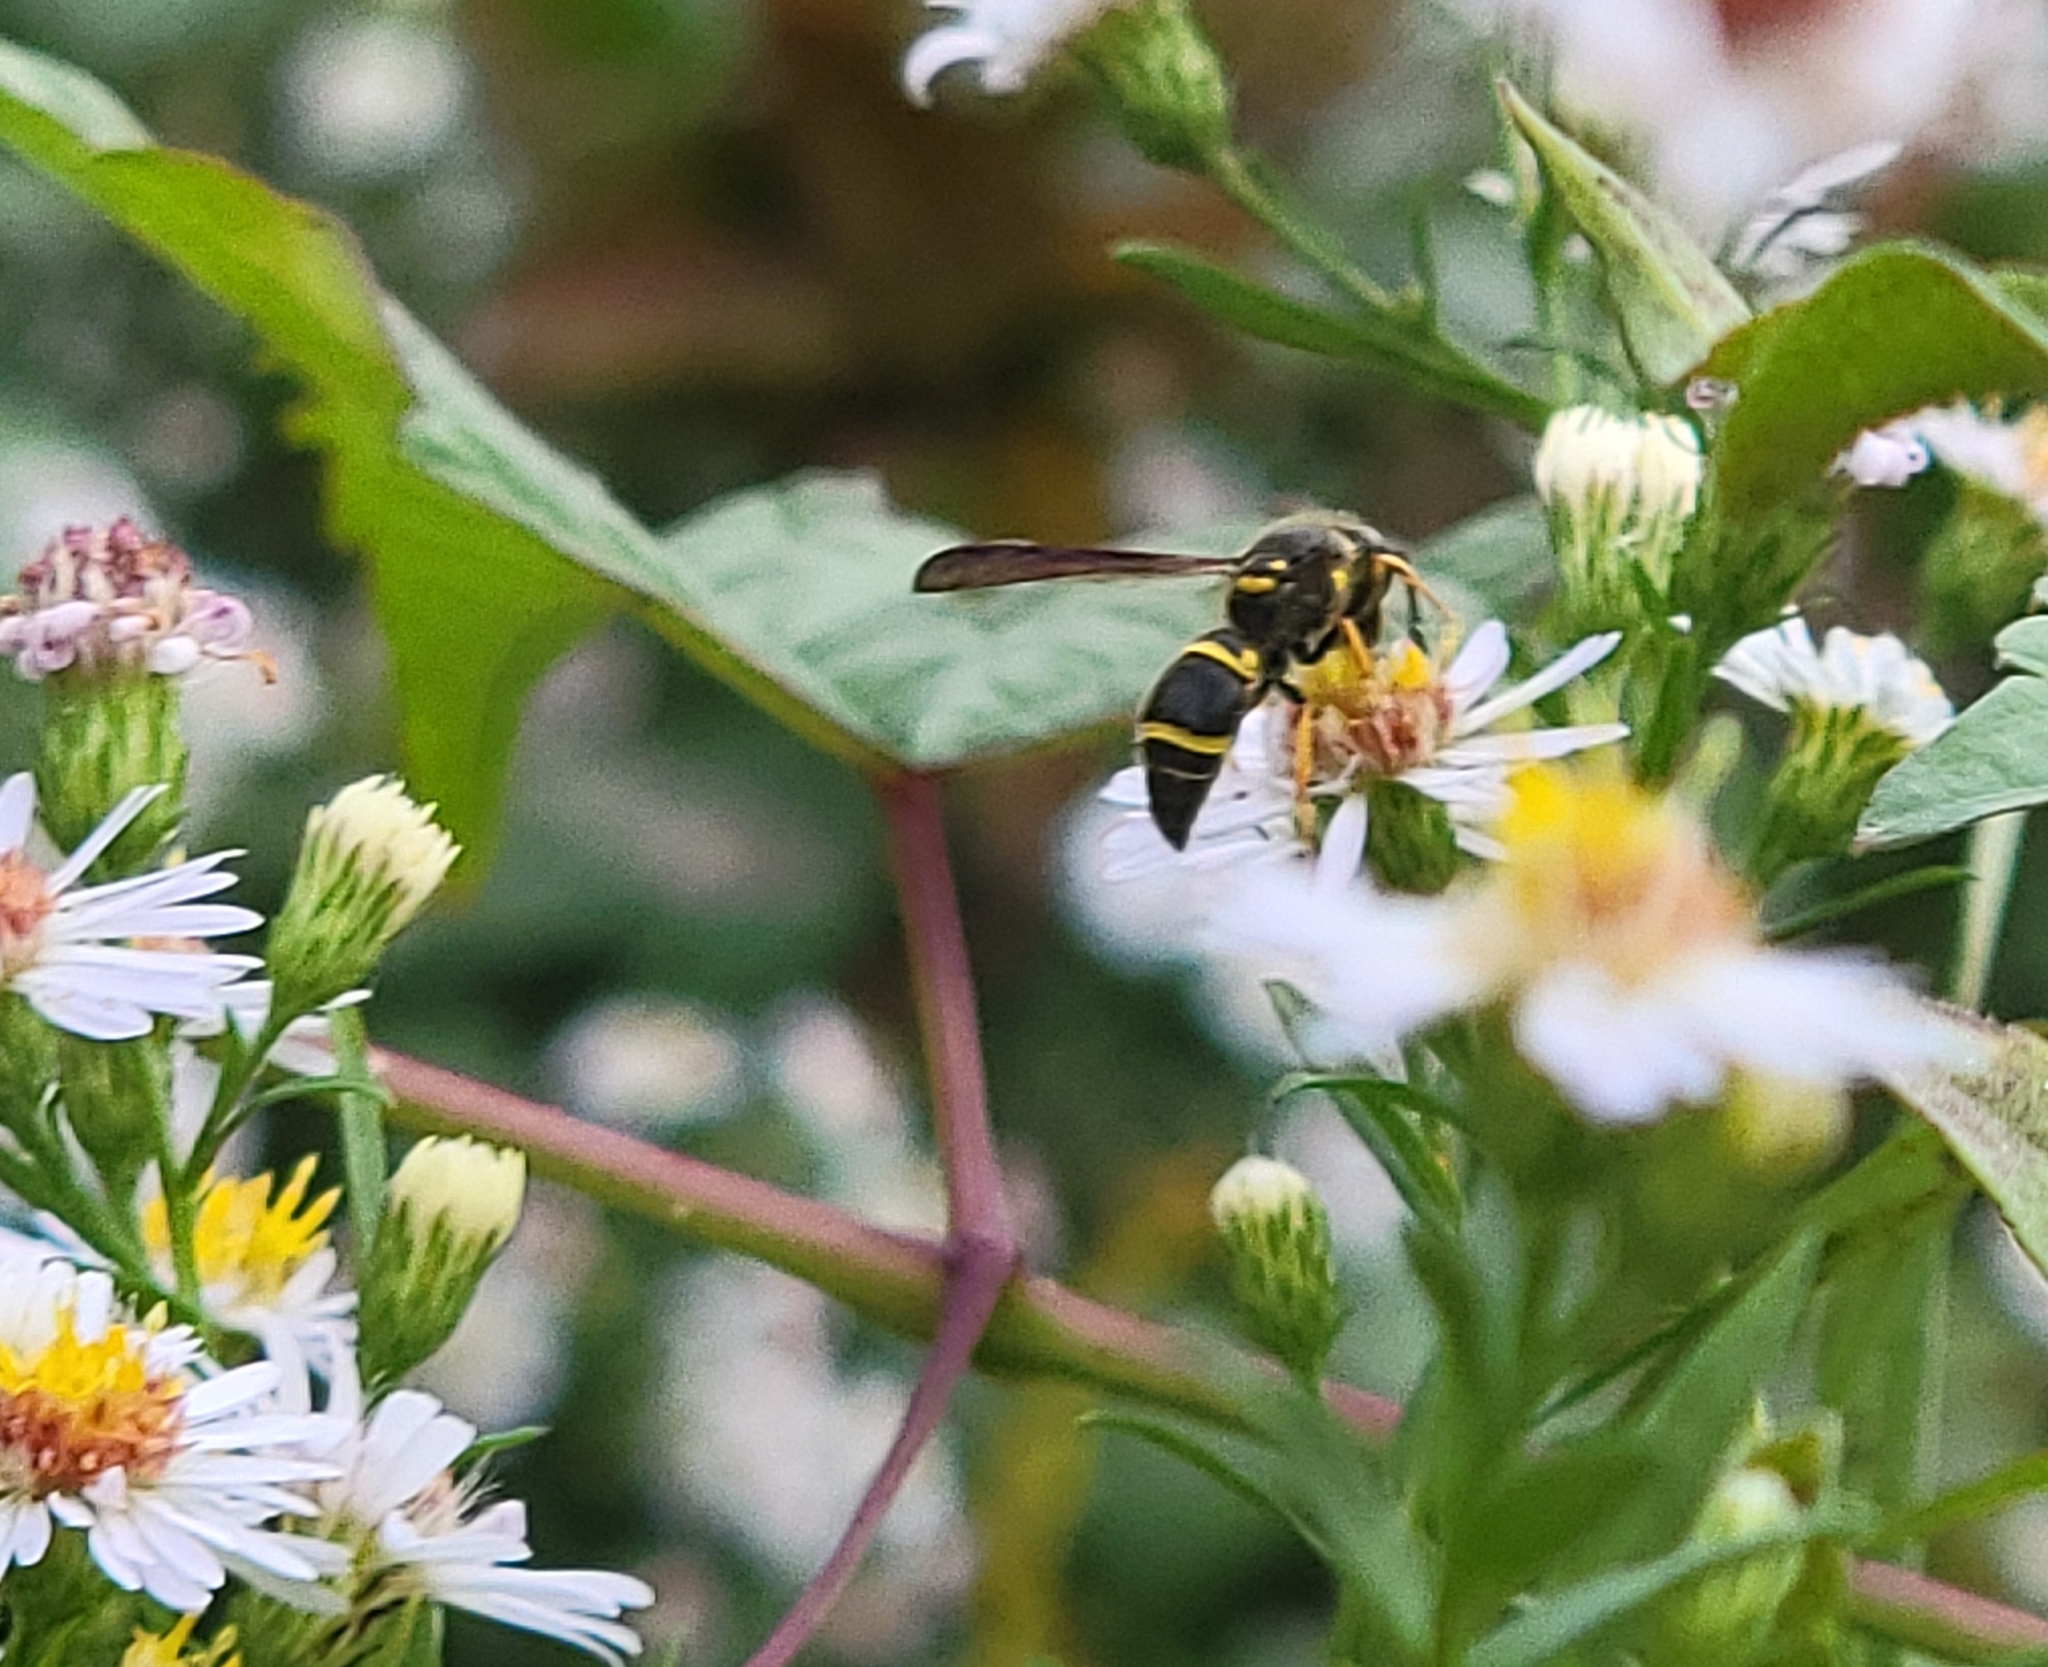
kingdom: Animalia
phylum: Arthropoda
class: Insecta
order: Hymenoptera
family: Vespidae
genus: Ancistrocerus
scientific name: Ancistrocerus campestris
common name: Smiling mason wasp
